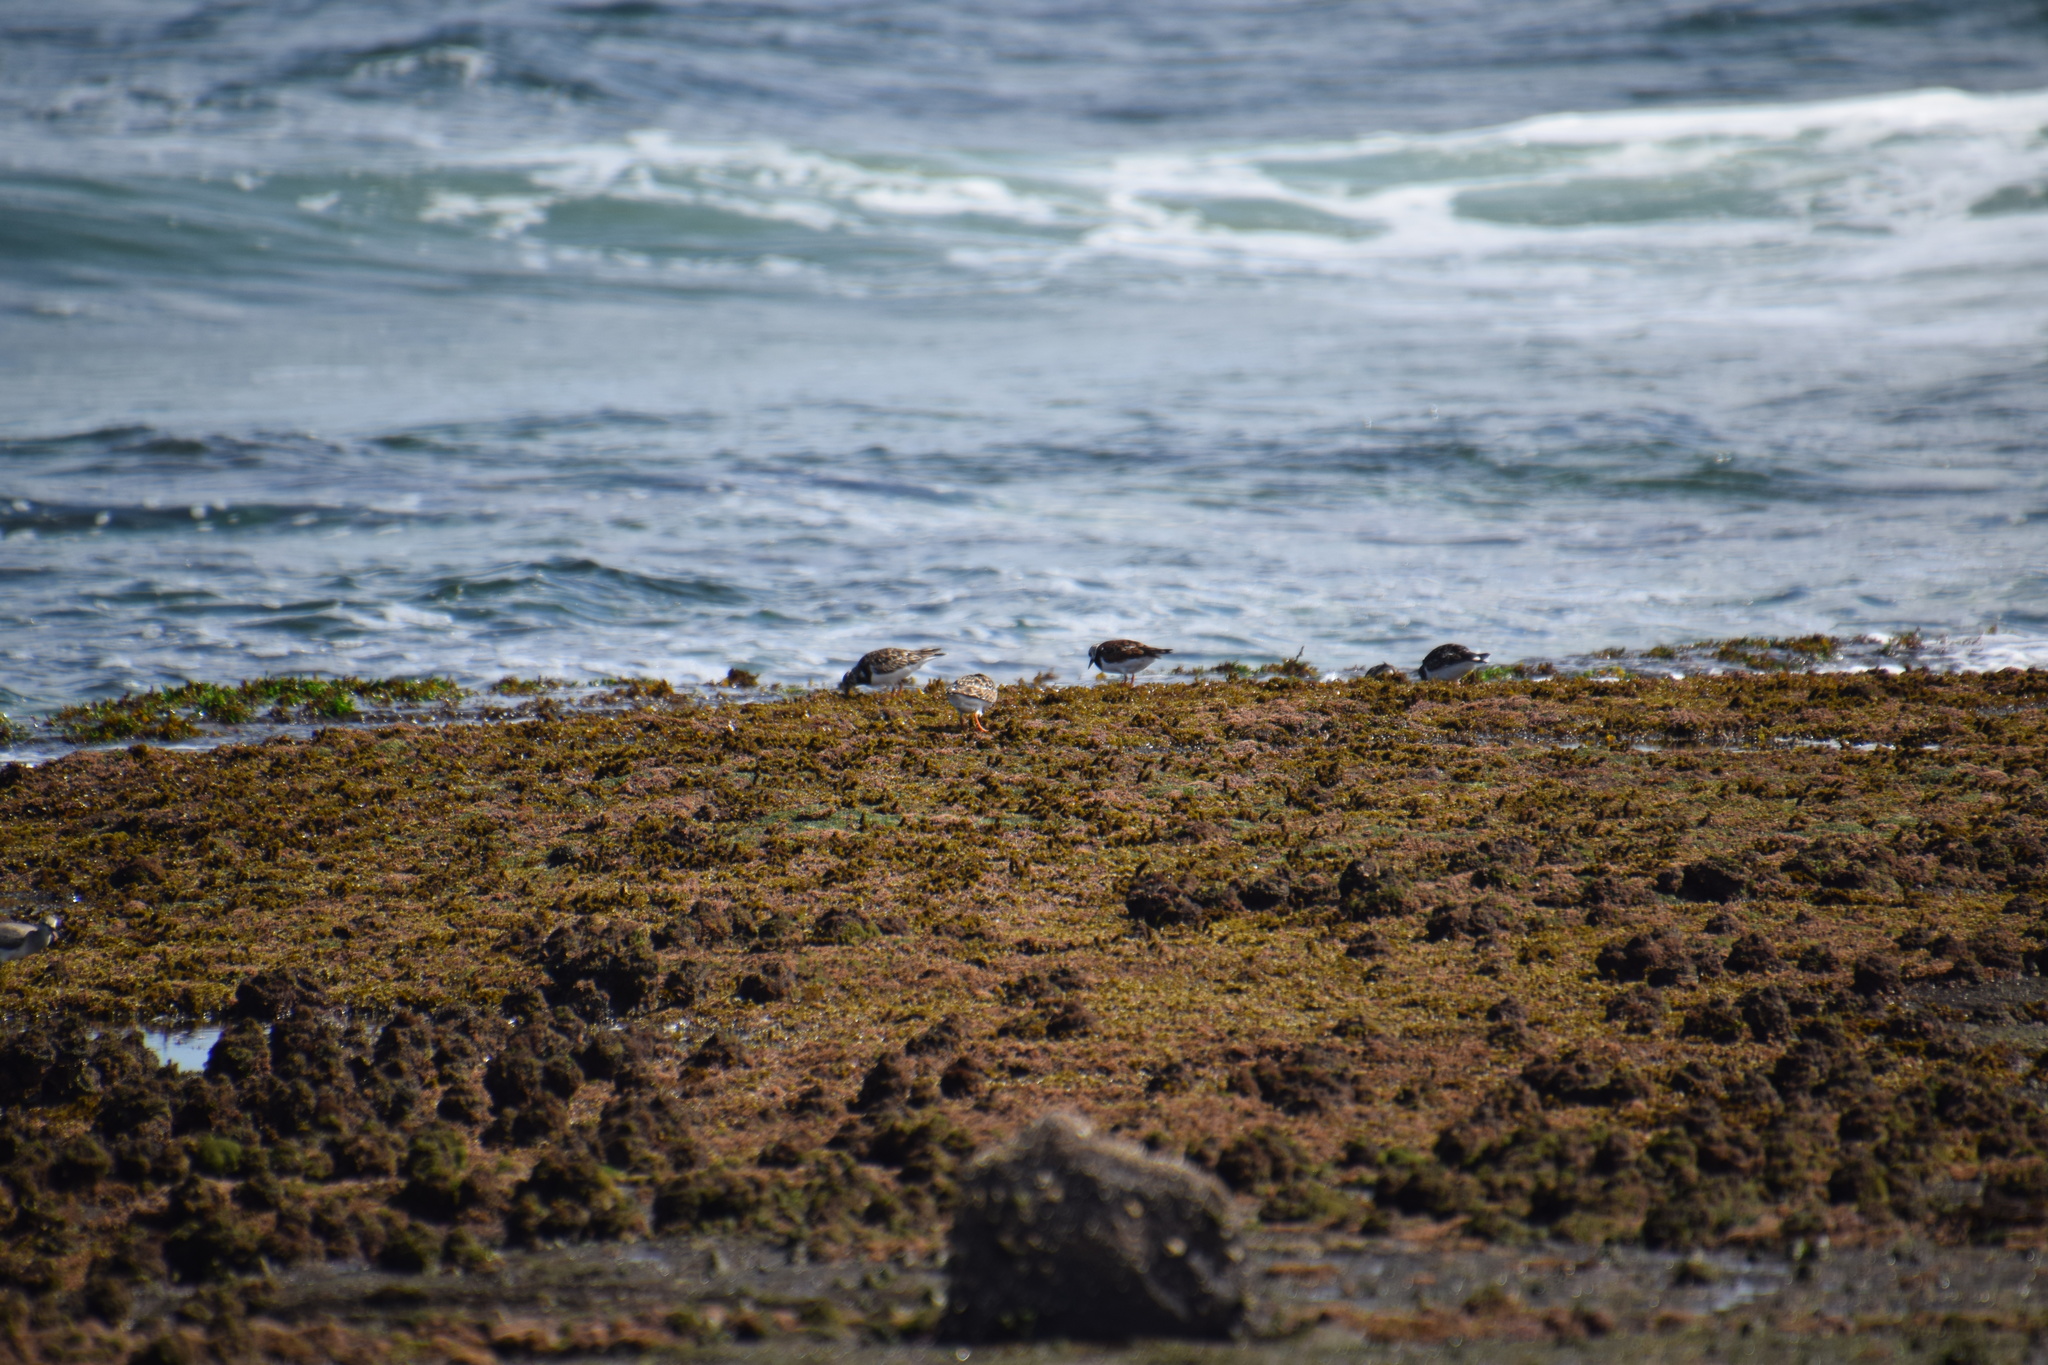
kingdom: Animalia
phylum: Chordata
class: Aves
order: Charadriiformes
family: Scolopacidae
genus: Arenaria
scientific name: Arenaria interpres
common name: Ruddy turnstone
